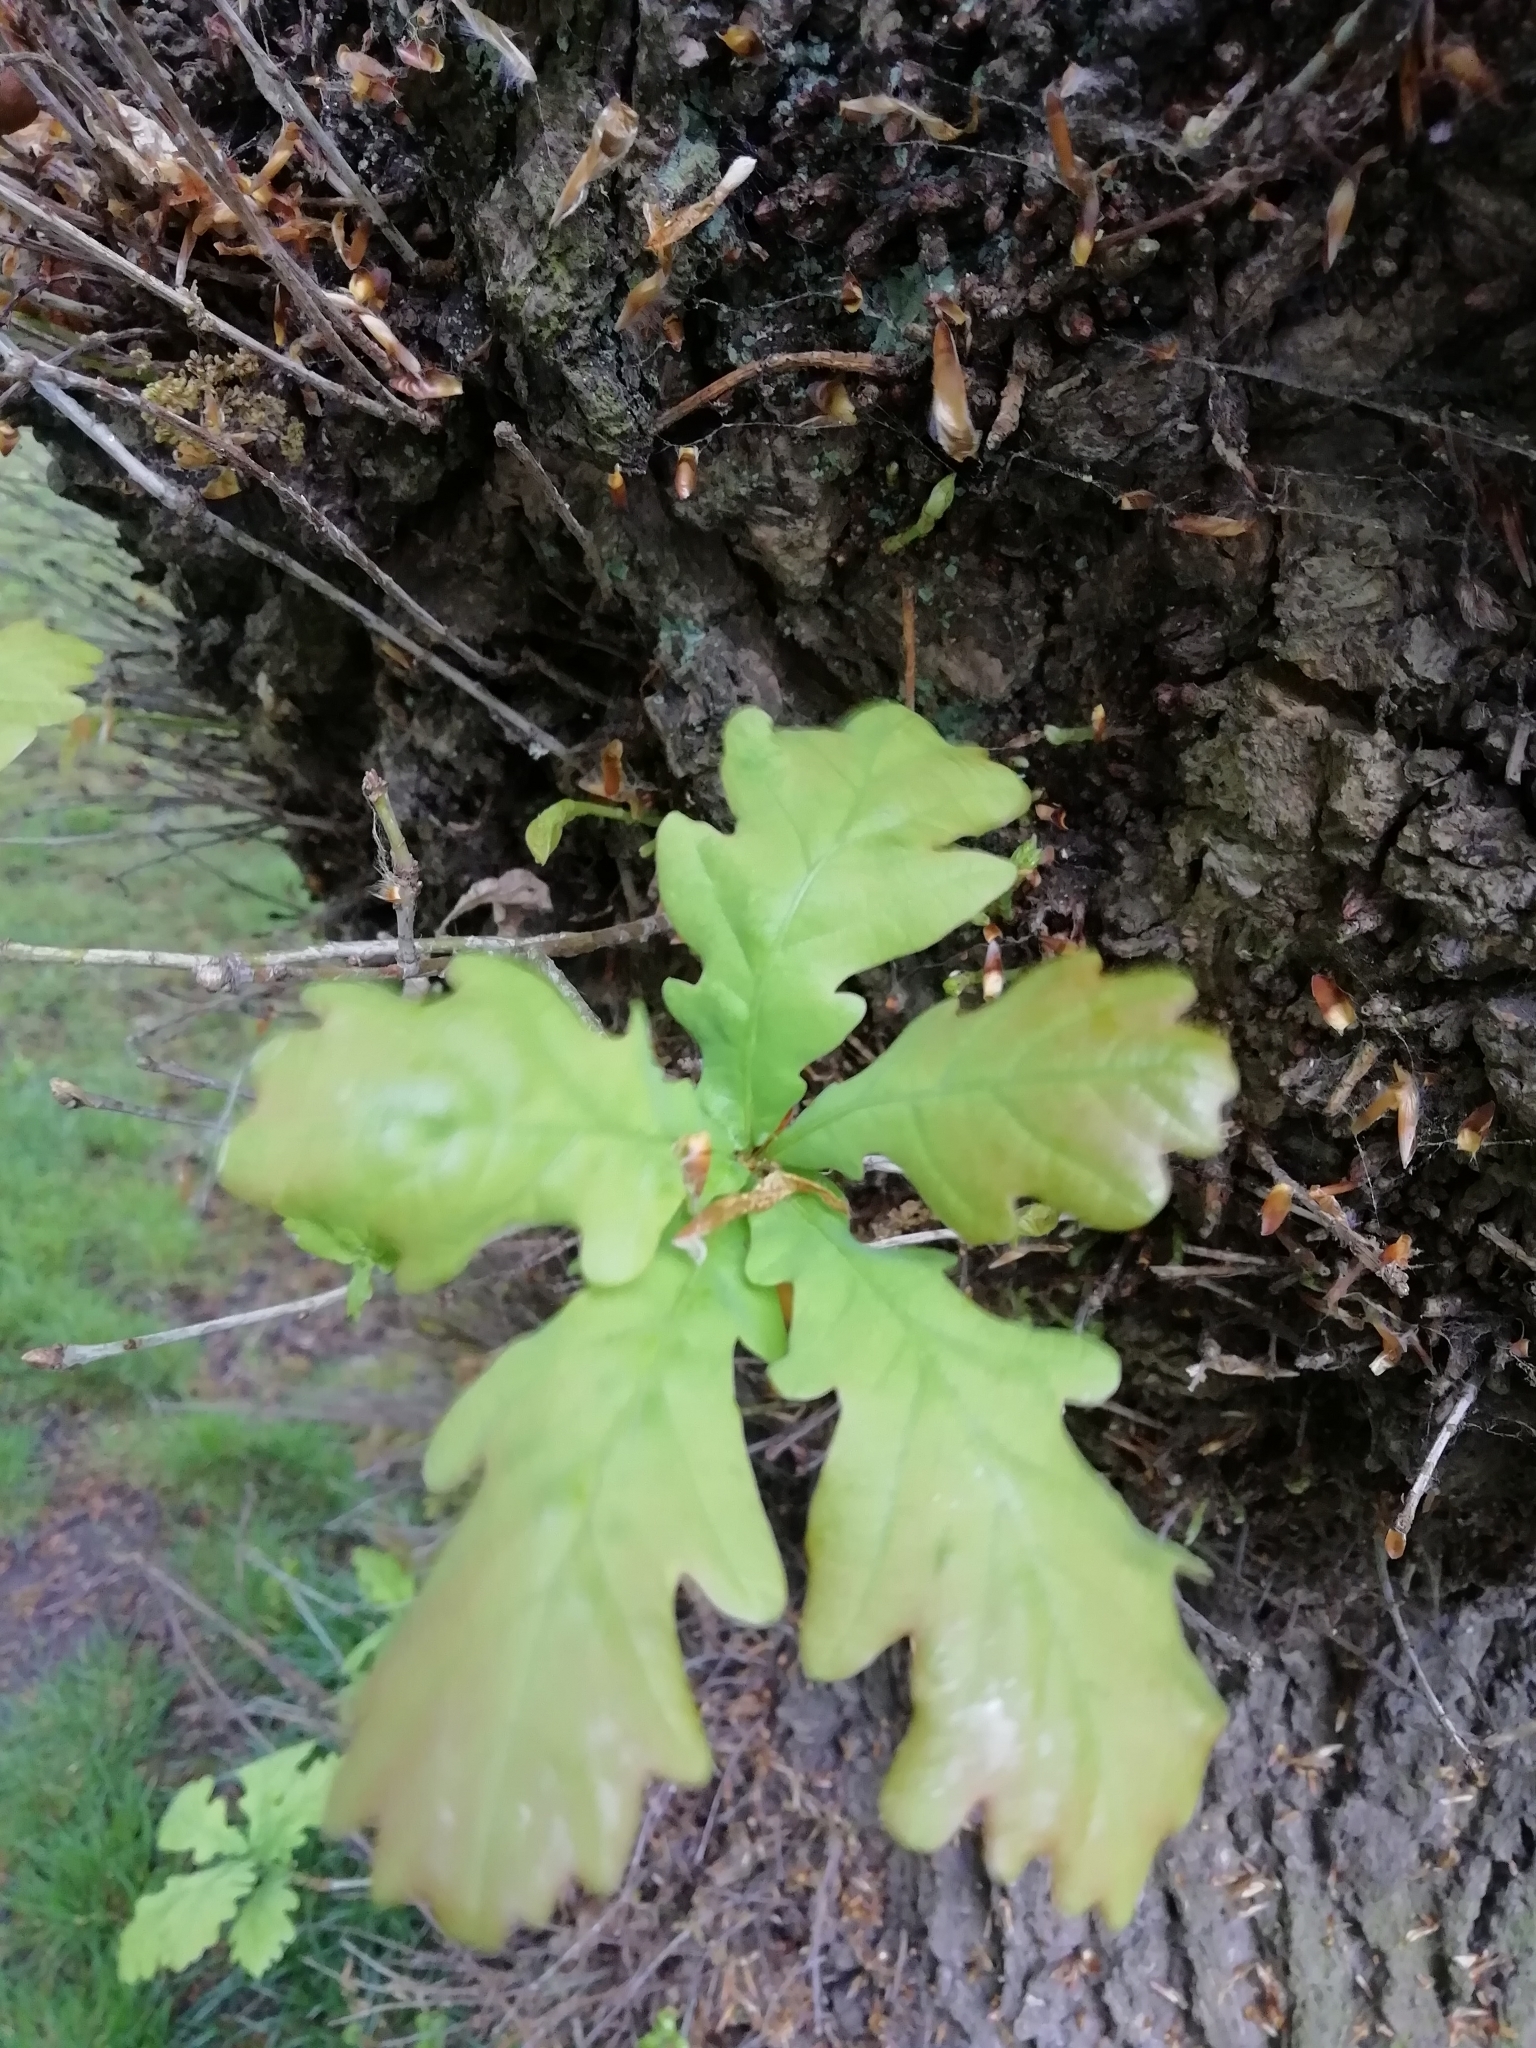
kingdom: Plantae
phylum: Tracheophyta
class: Magnoliopsida
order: Fagales
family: Fagaceae
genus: Quercus
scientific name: Quercus robur
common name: Pedunculate oak
